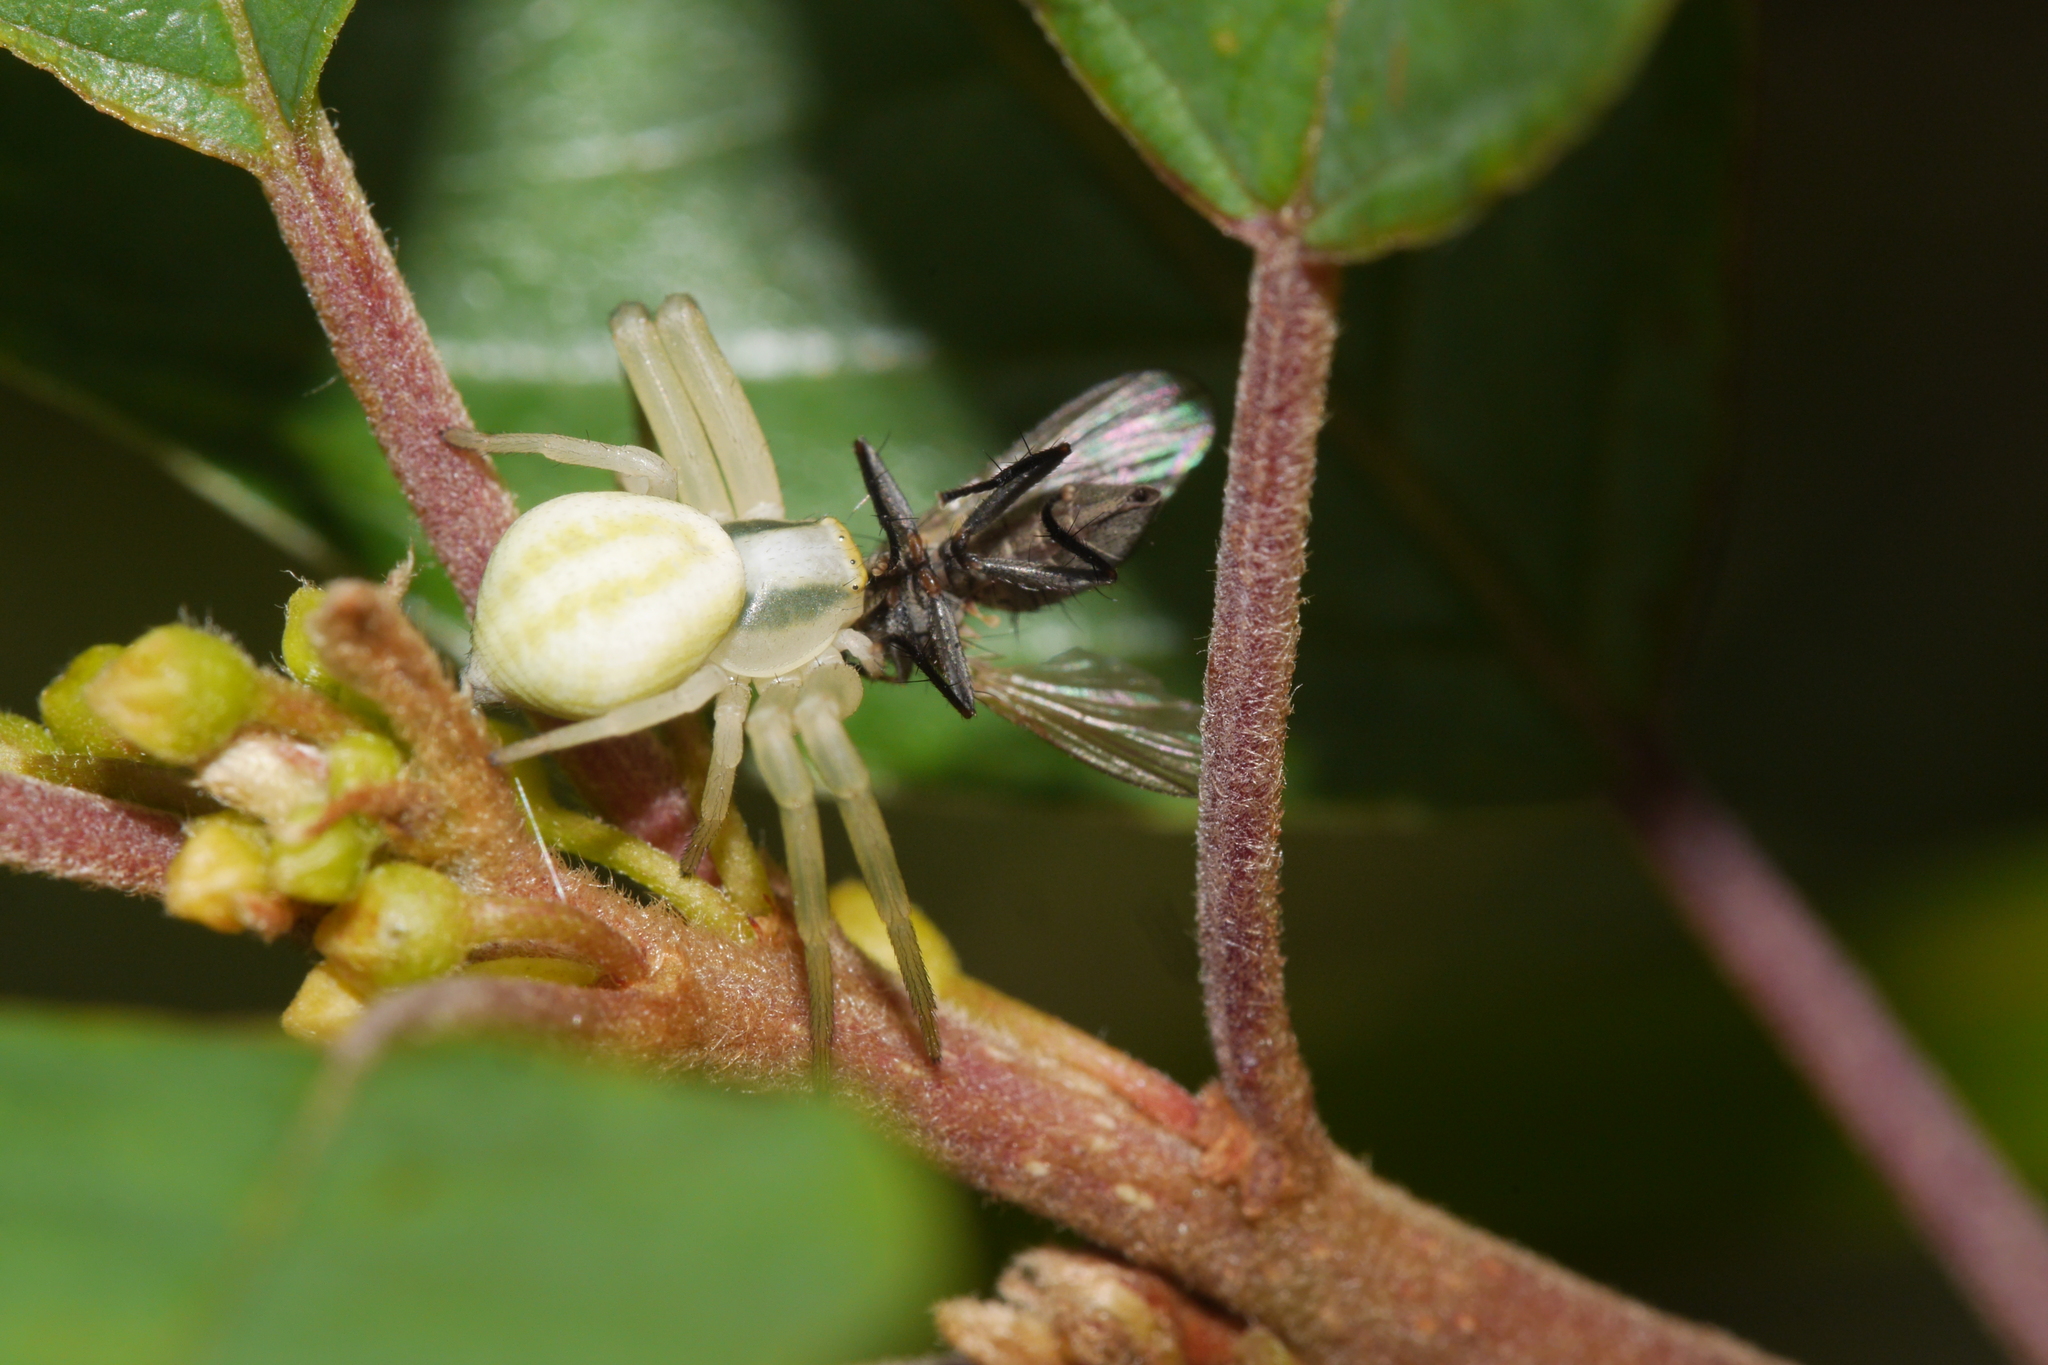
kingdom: Animalia
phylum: Arthropoda
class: Arachnida
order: Araneae
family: Thomisidae
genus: Misumena
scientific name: Misumena vatia
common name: Goldenrod crab spider
